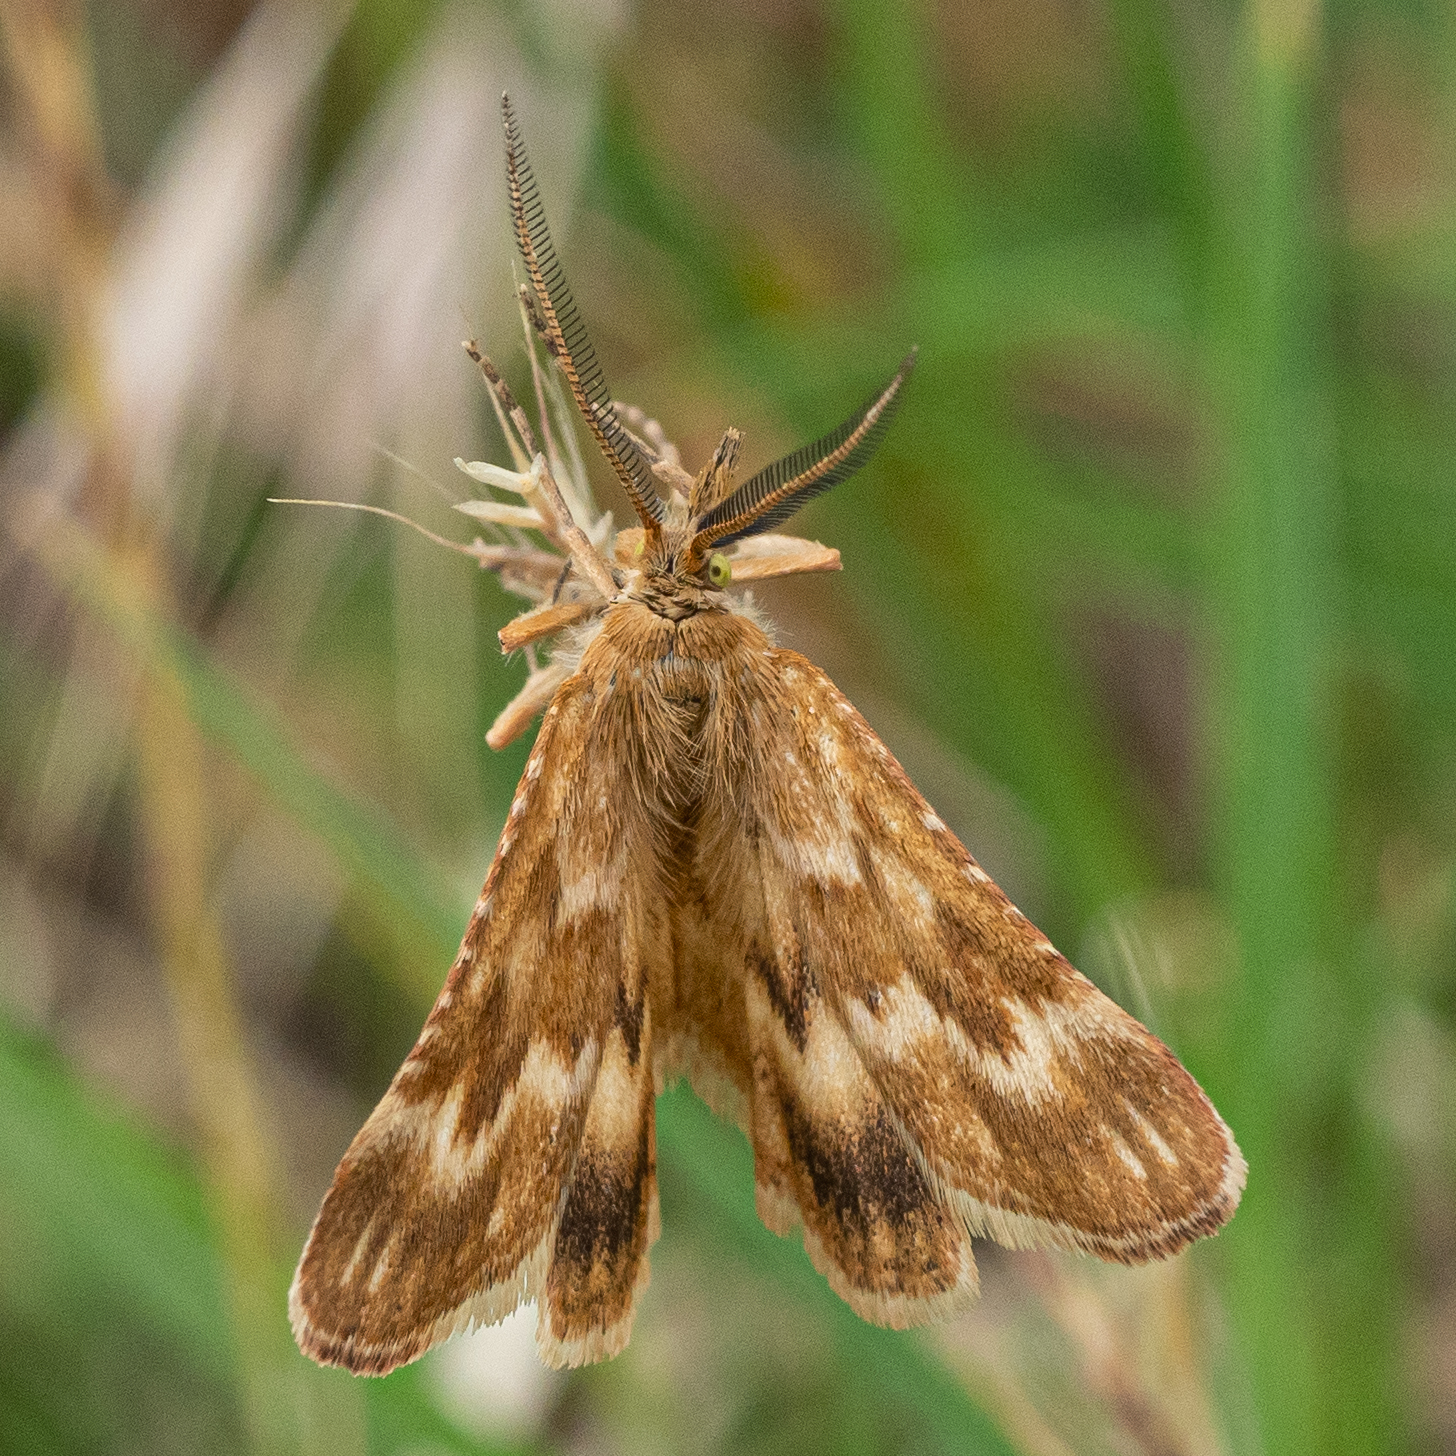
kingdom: Animalia
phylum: Arthropoda
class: Insecta
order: Lepidoptera
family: Pyralidae
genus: Synaphe
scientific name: Synaphe moldavica
